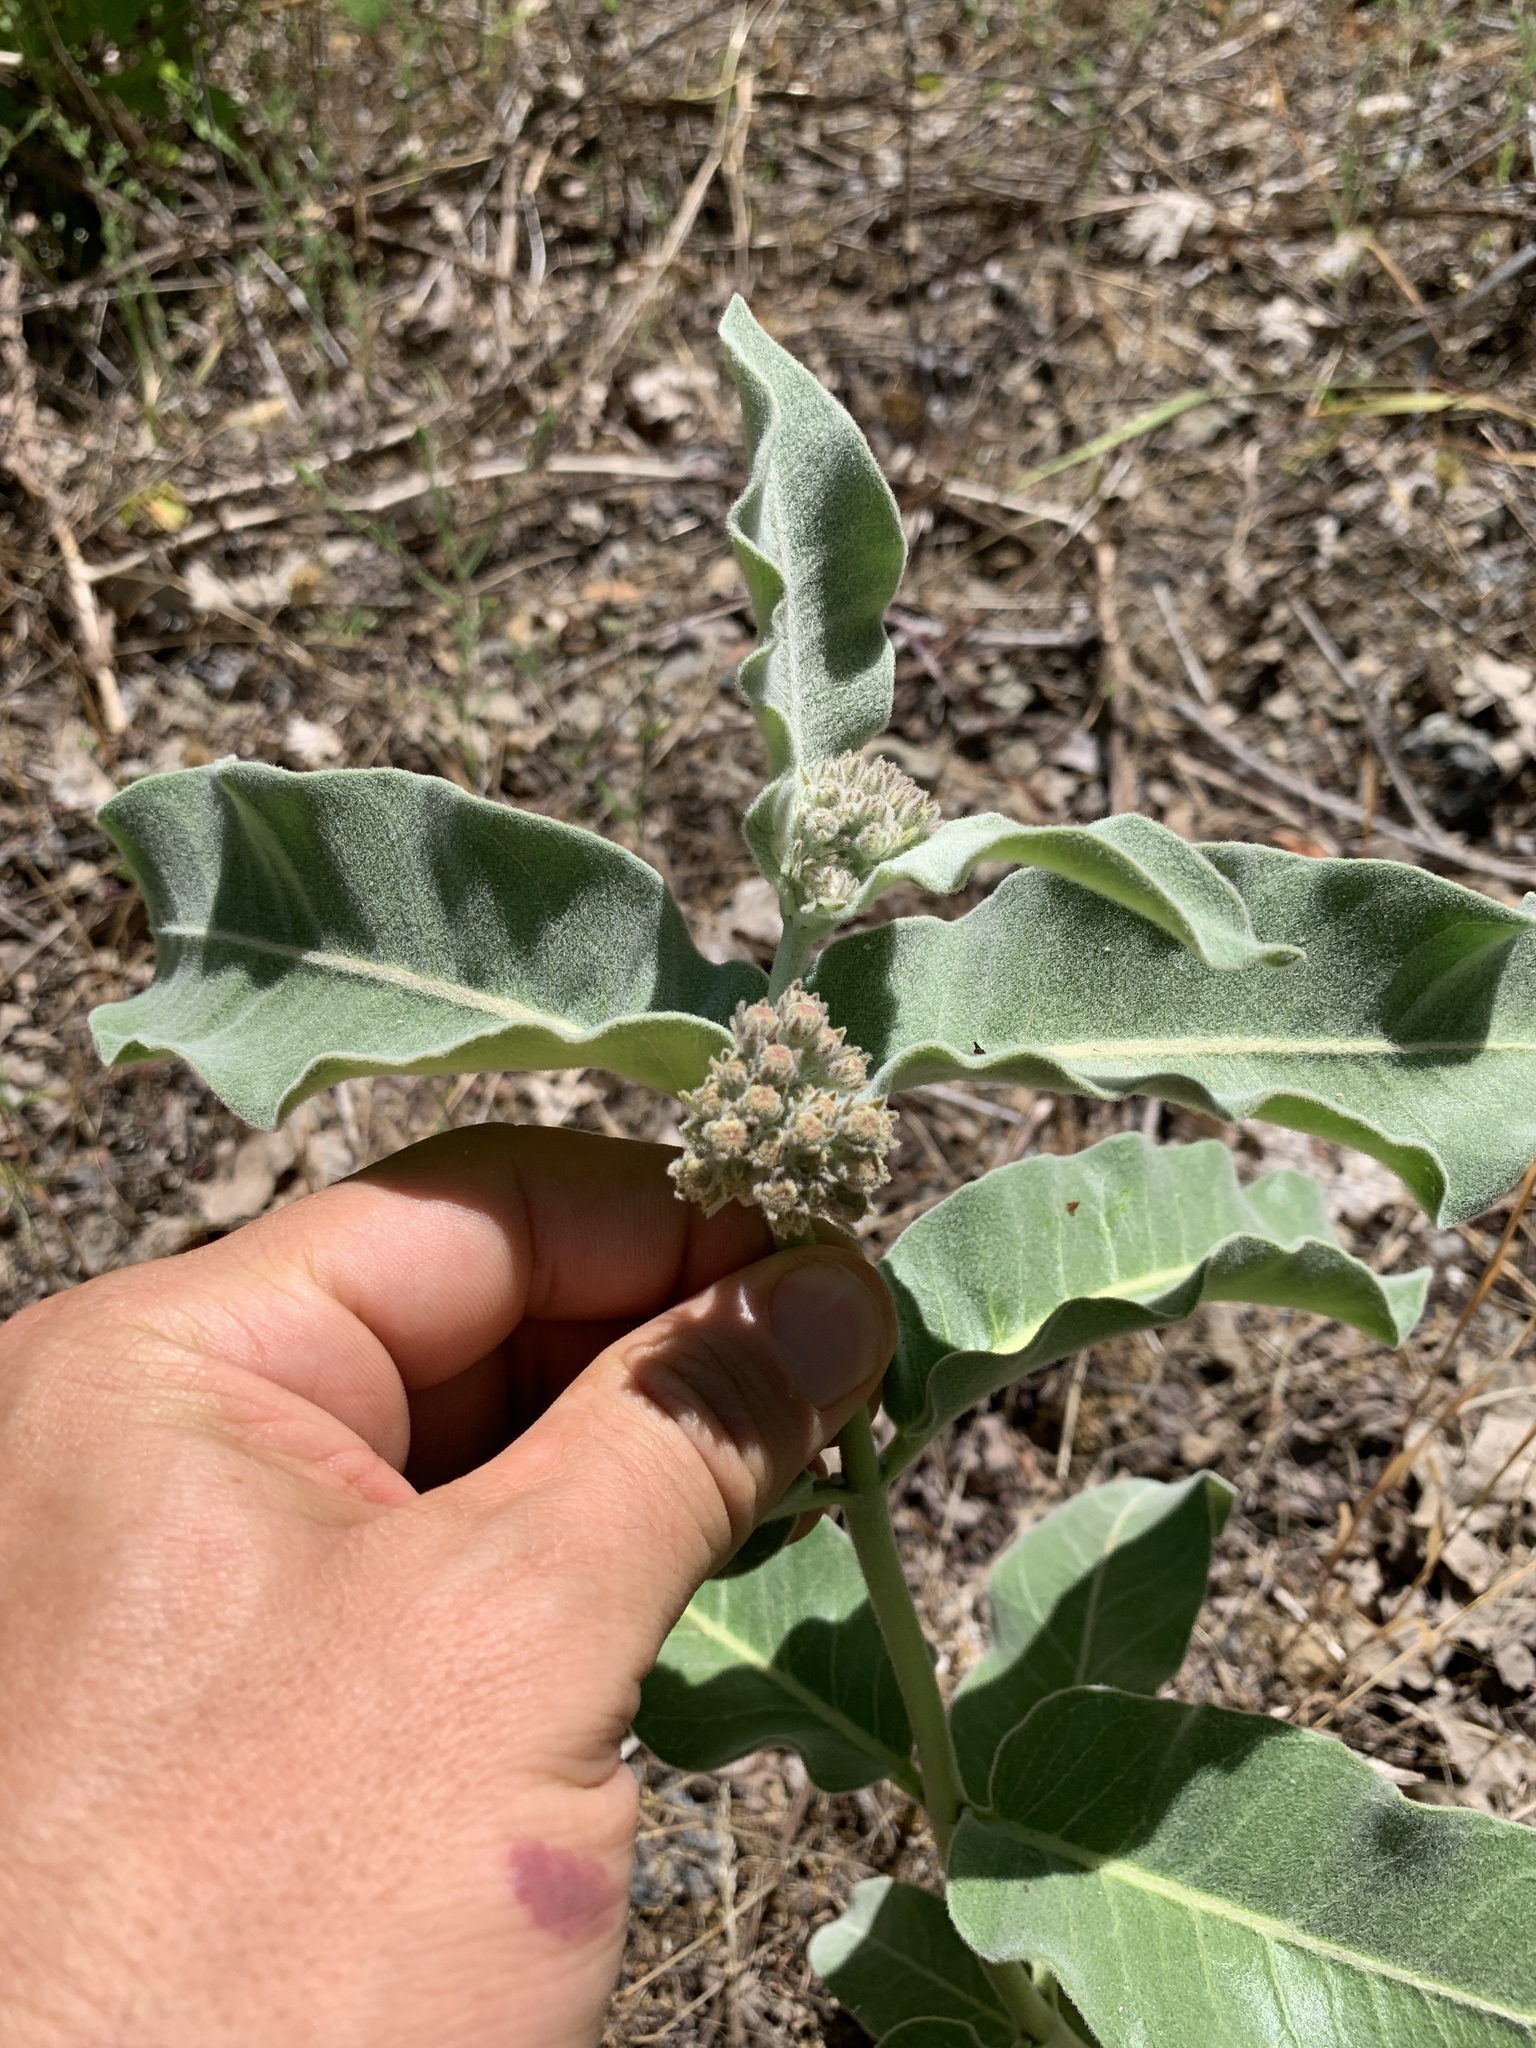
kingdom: Plantae
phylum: Tracheophyta
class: Magnoliopsida
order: Gentianales
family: Apocynaceae
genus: Asclepias
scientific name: Asclepias eriocarpa
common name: Indian milkweed
